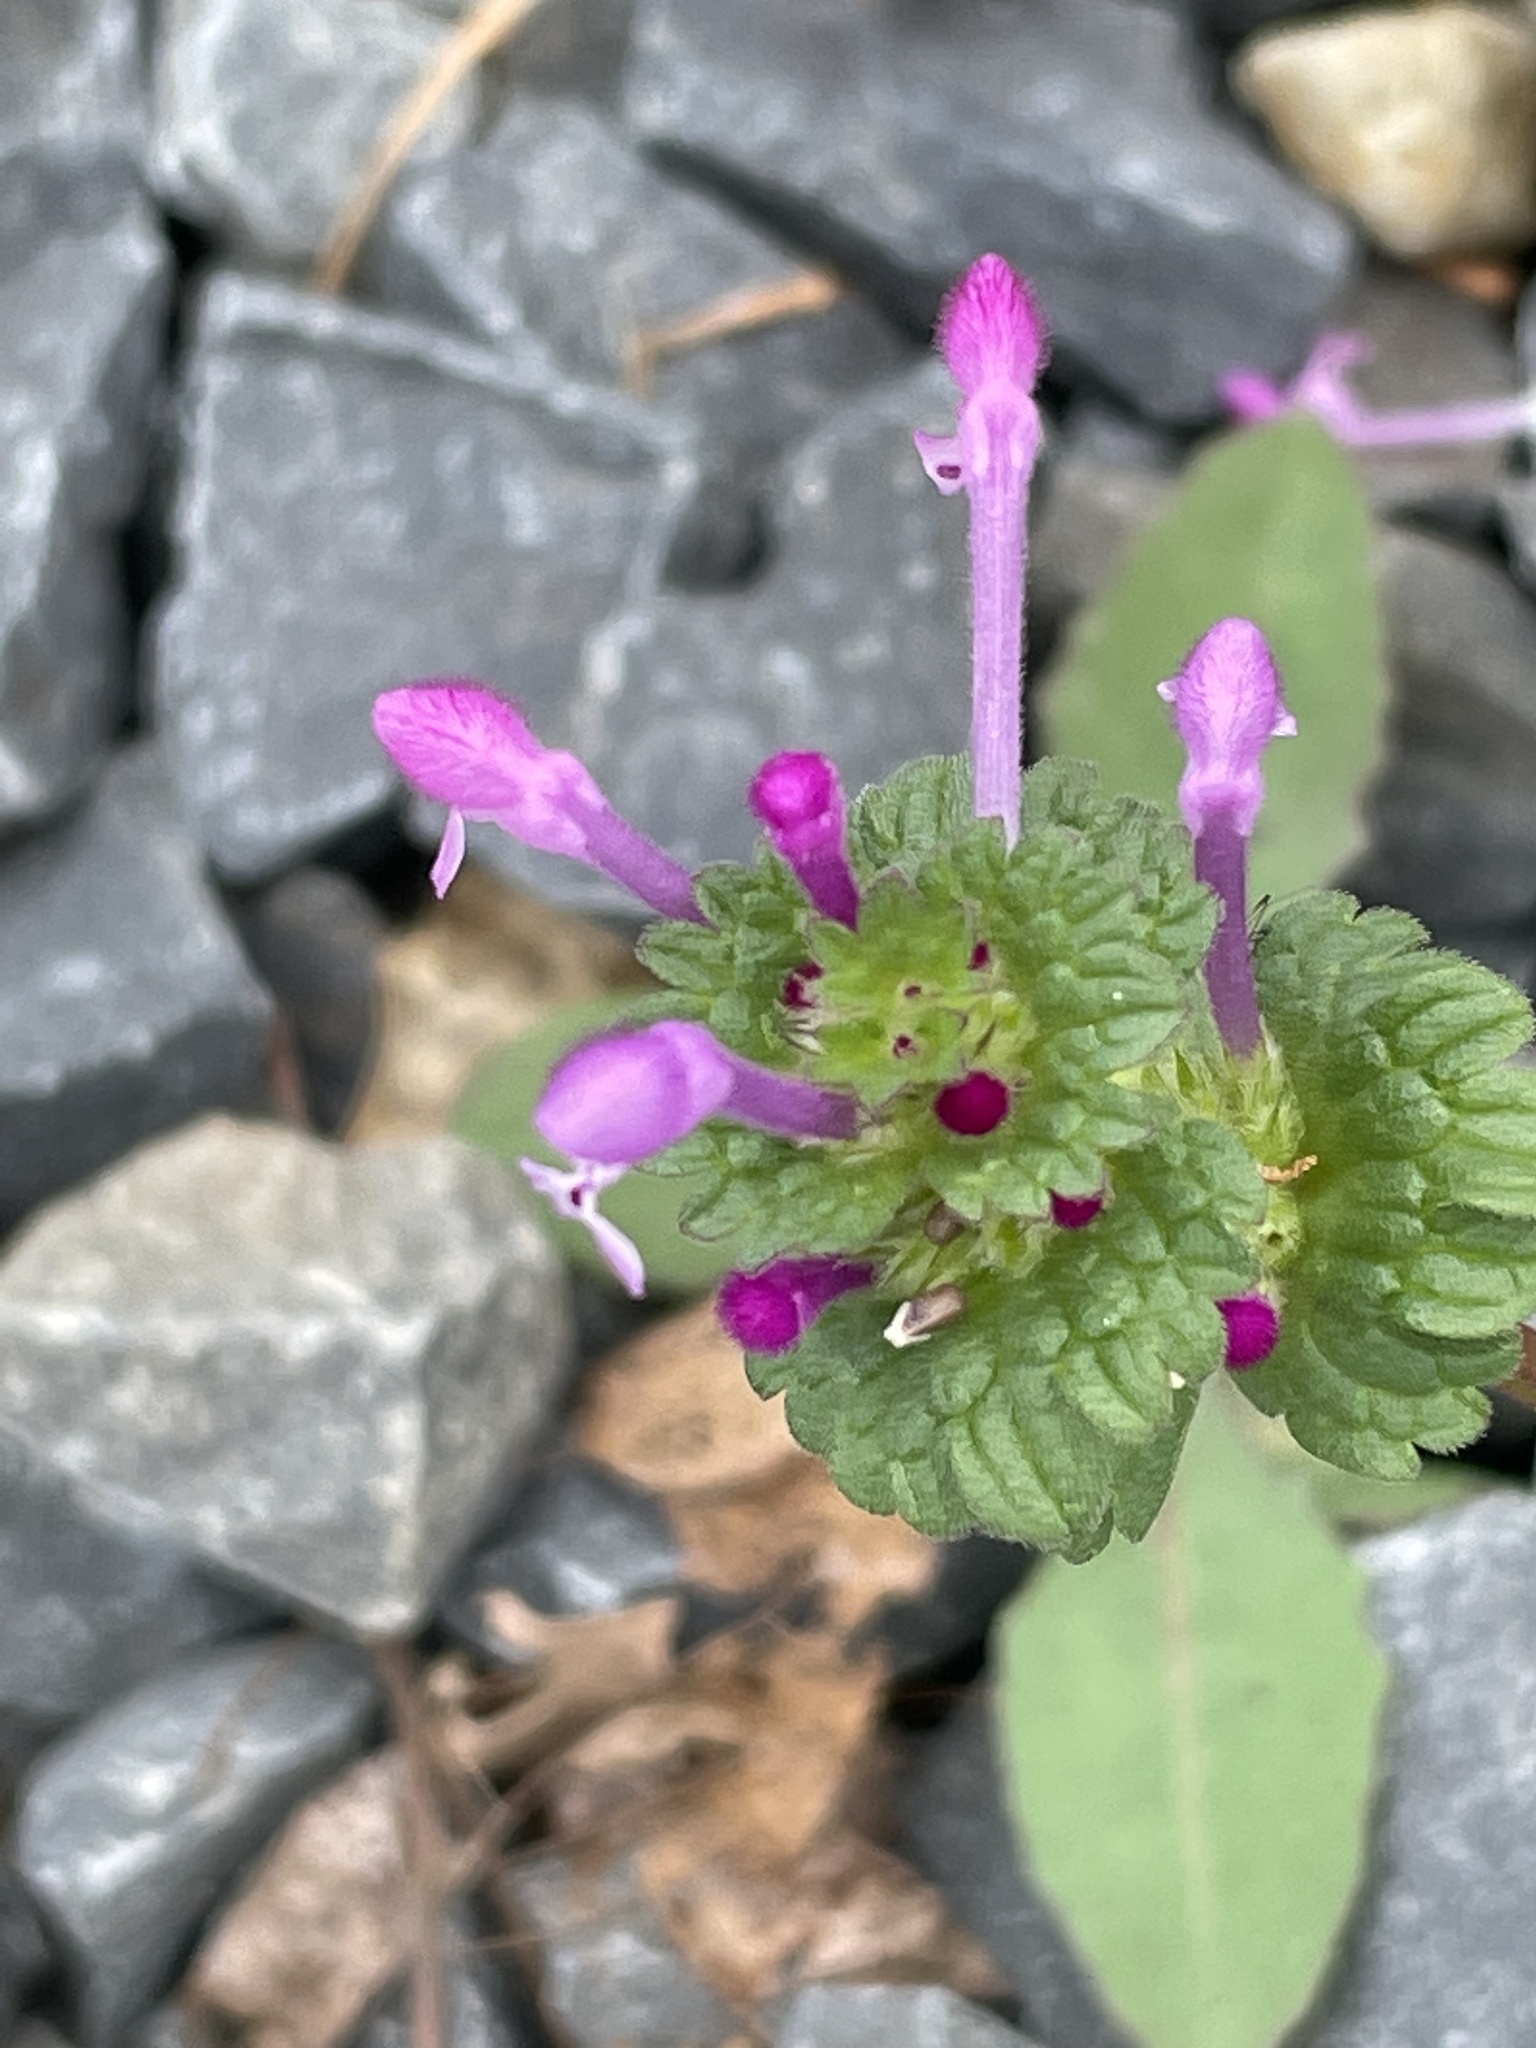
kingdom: Plantae
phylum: Tracheophyta
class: Magnoliopsida
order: Lamiales
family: Lamiaceae
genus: Lamium
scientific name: Lamium amplexicaule
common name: Henbit dead-nettle
